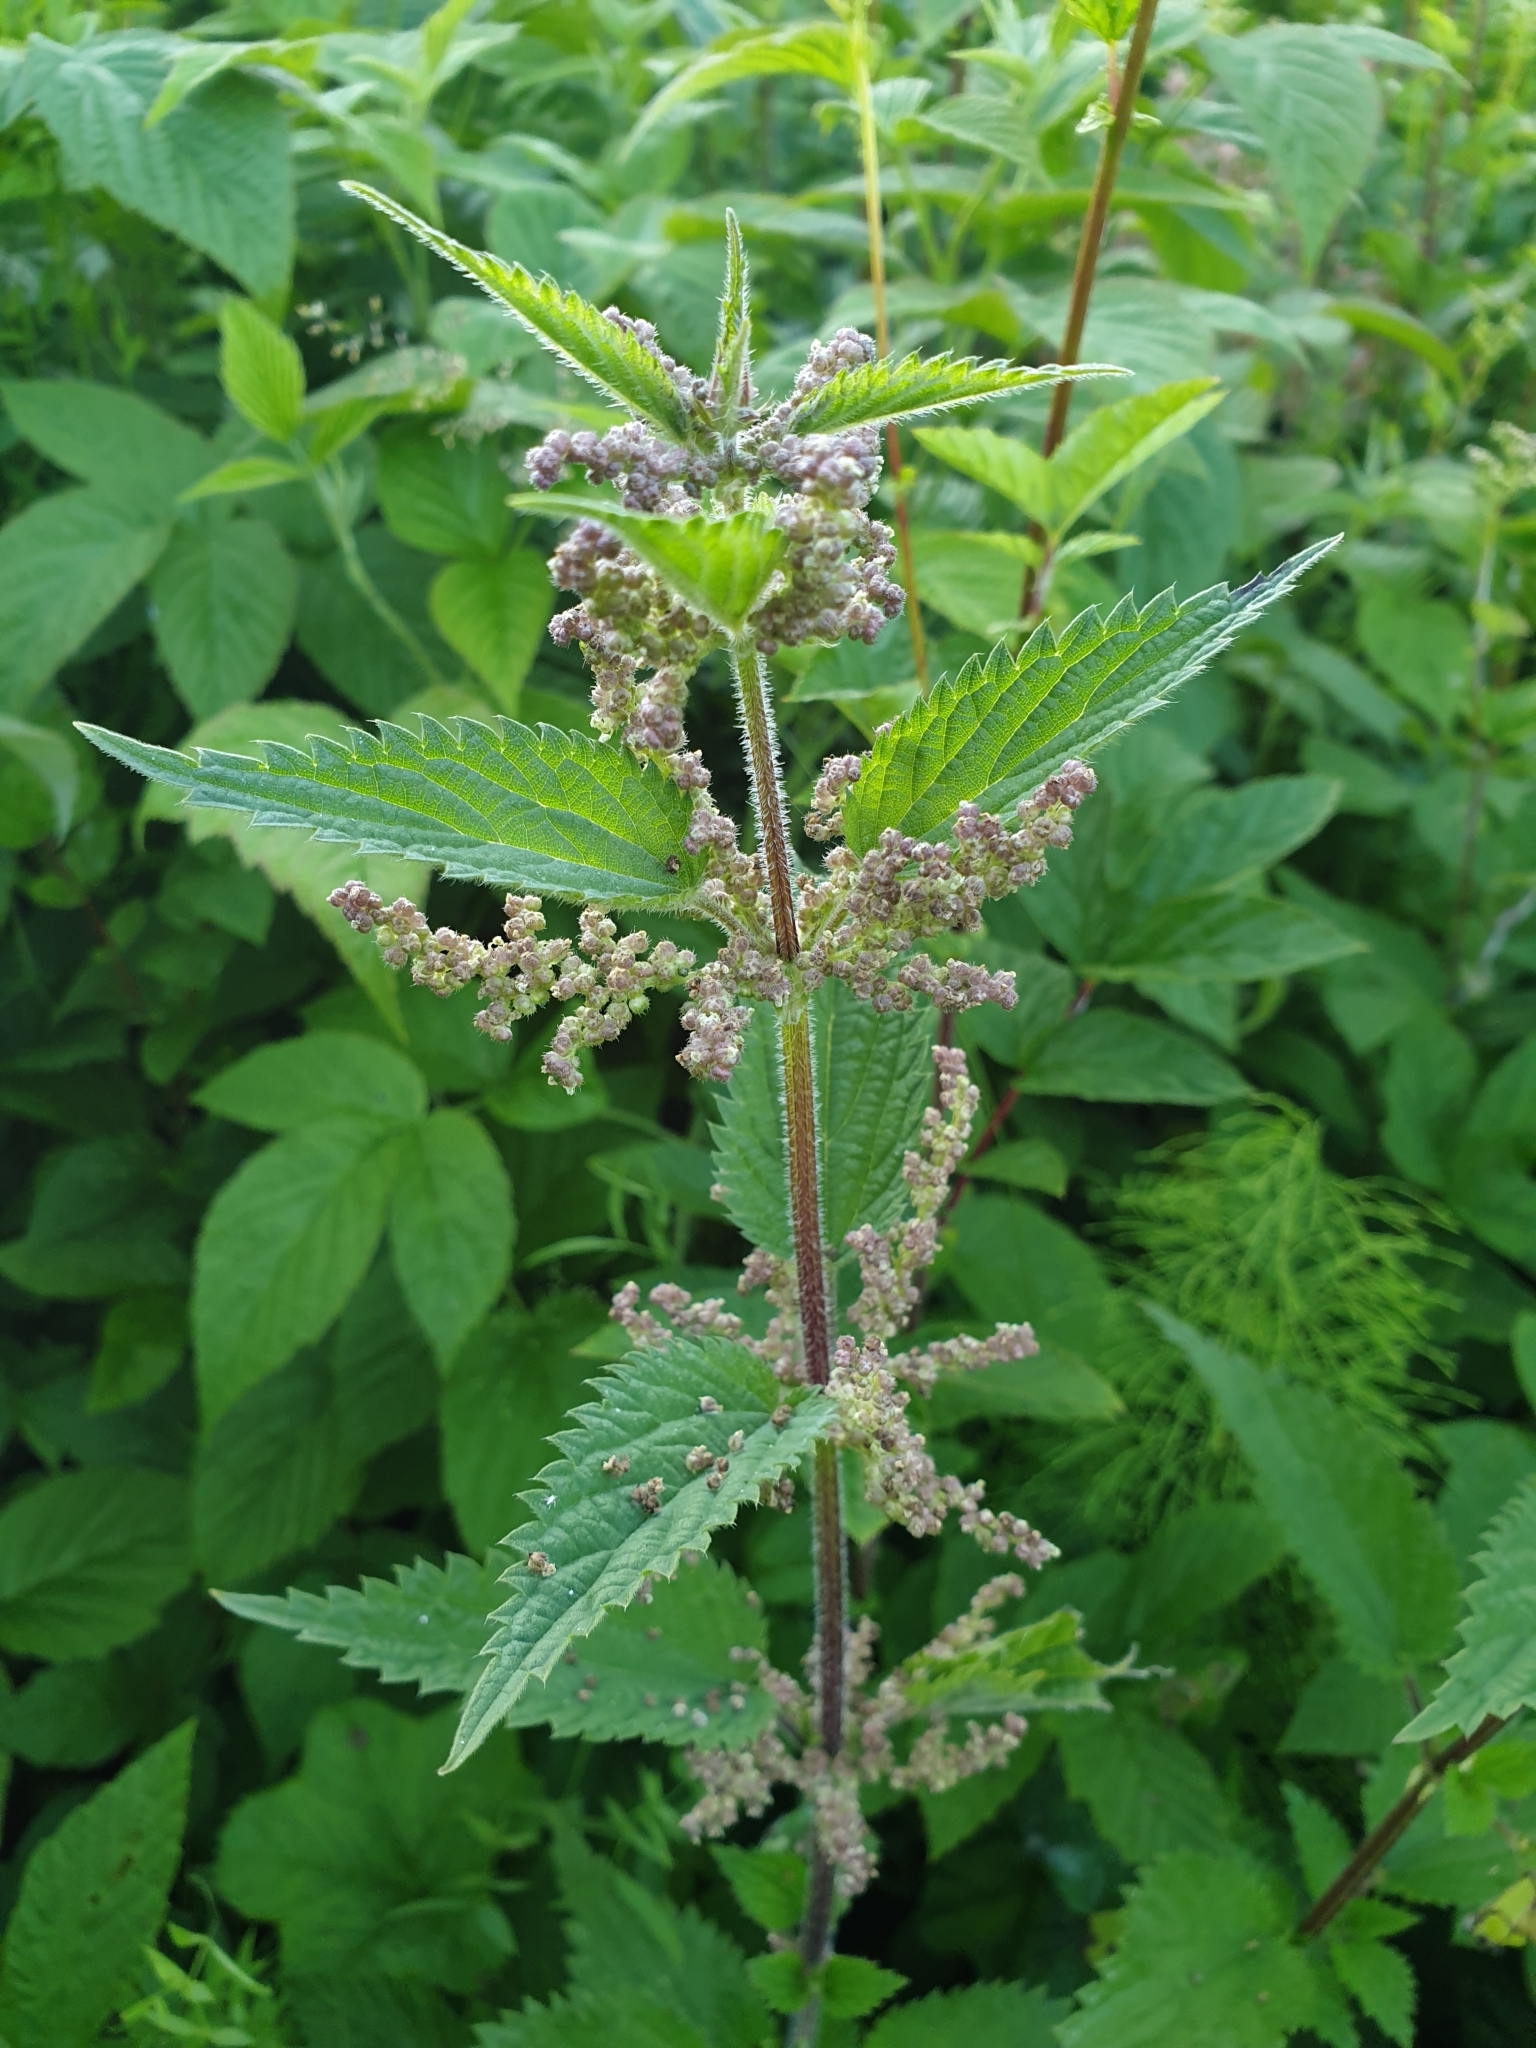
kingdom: Plantae
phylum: Tracheophyta
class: Magnoliopsida
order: Rosales
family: Urticaceae
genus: Urtica
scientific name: Urtica dioica
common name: Common nettle
